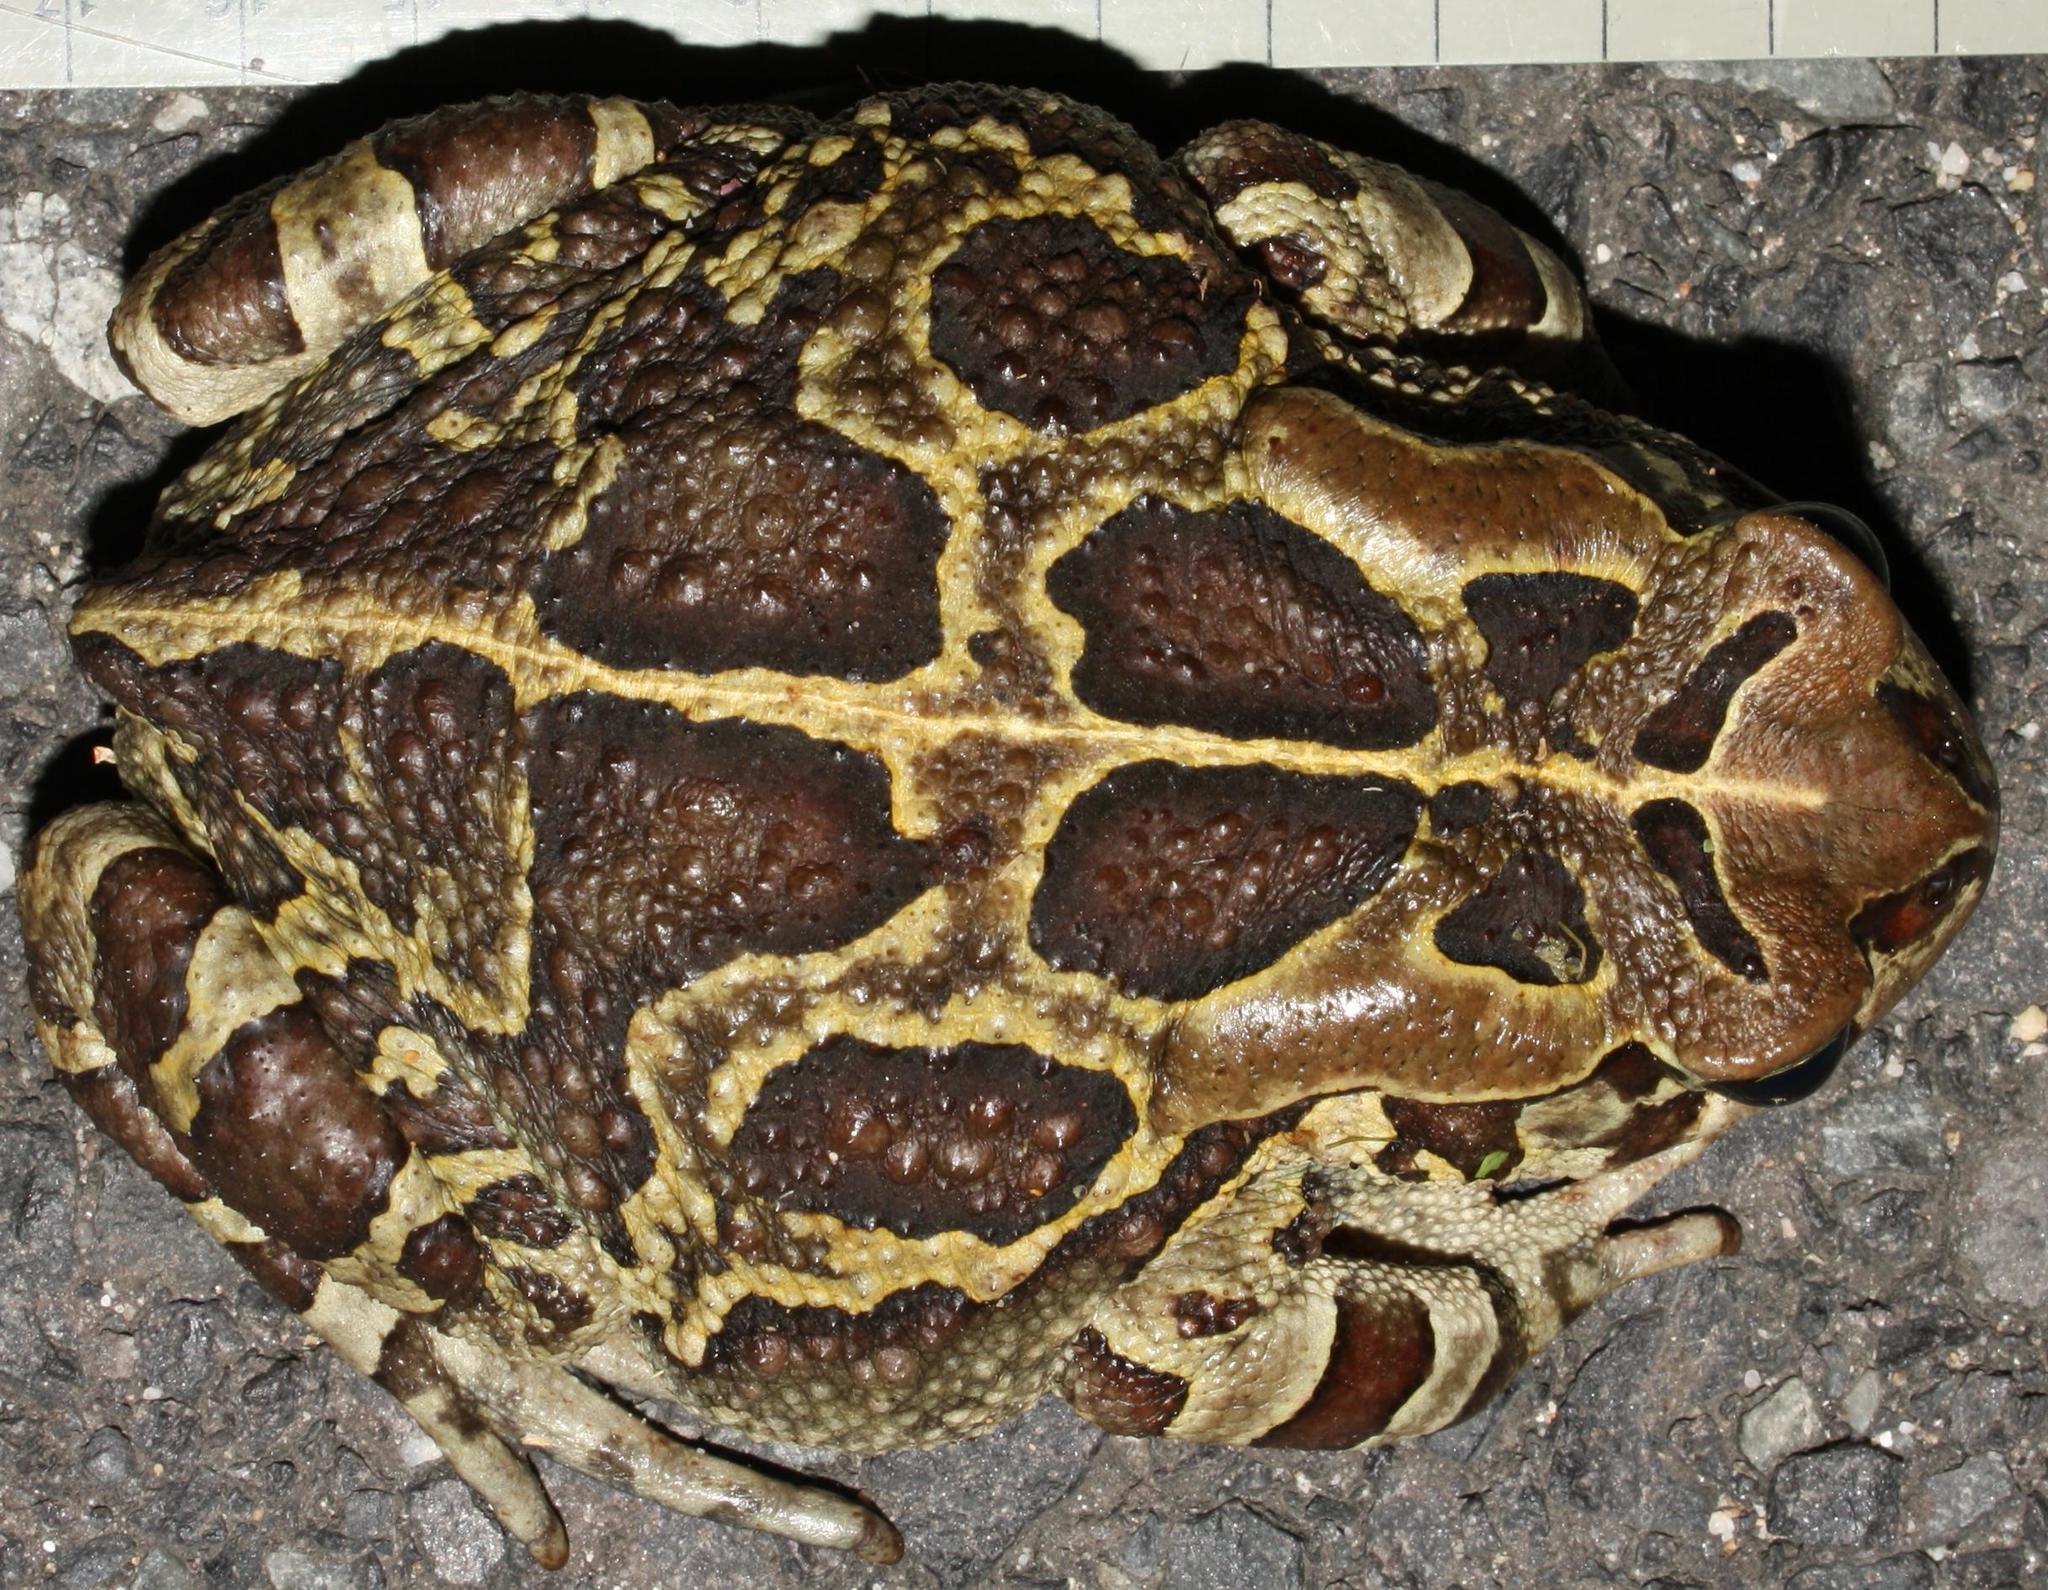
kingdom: Animalia
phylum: Chordata
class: Amphibia
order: Anura
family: Bufonidae
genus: Sclerophrys
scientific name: Sclerophrys pantherina
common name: Panther toad
